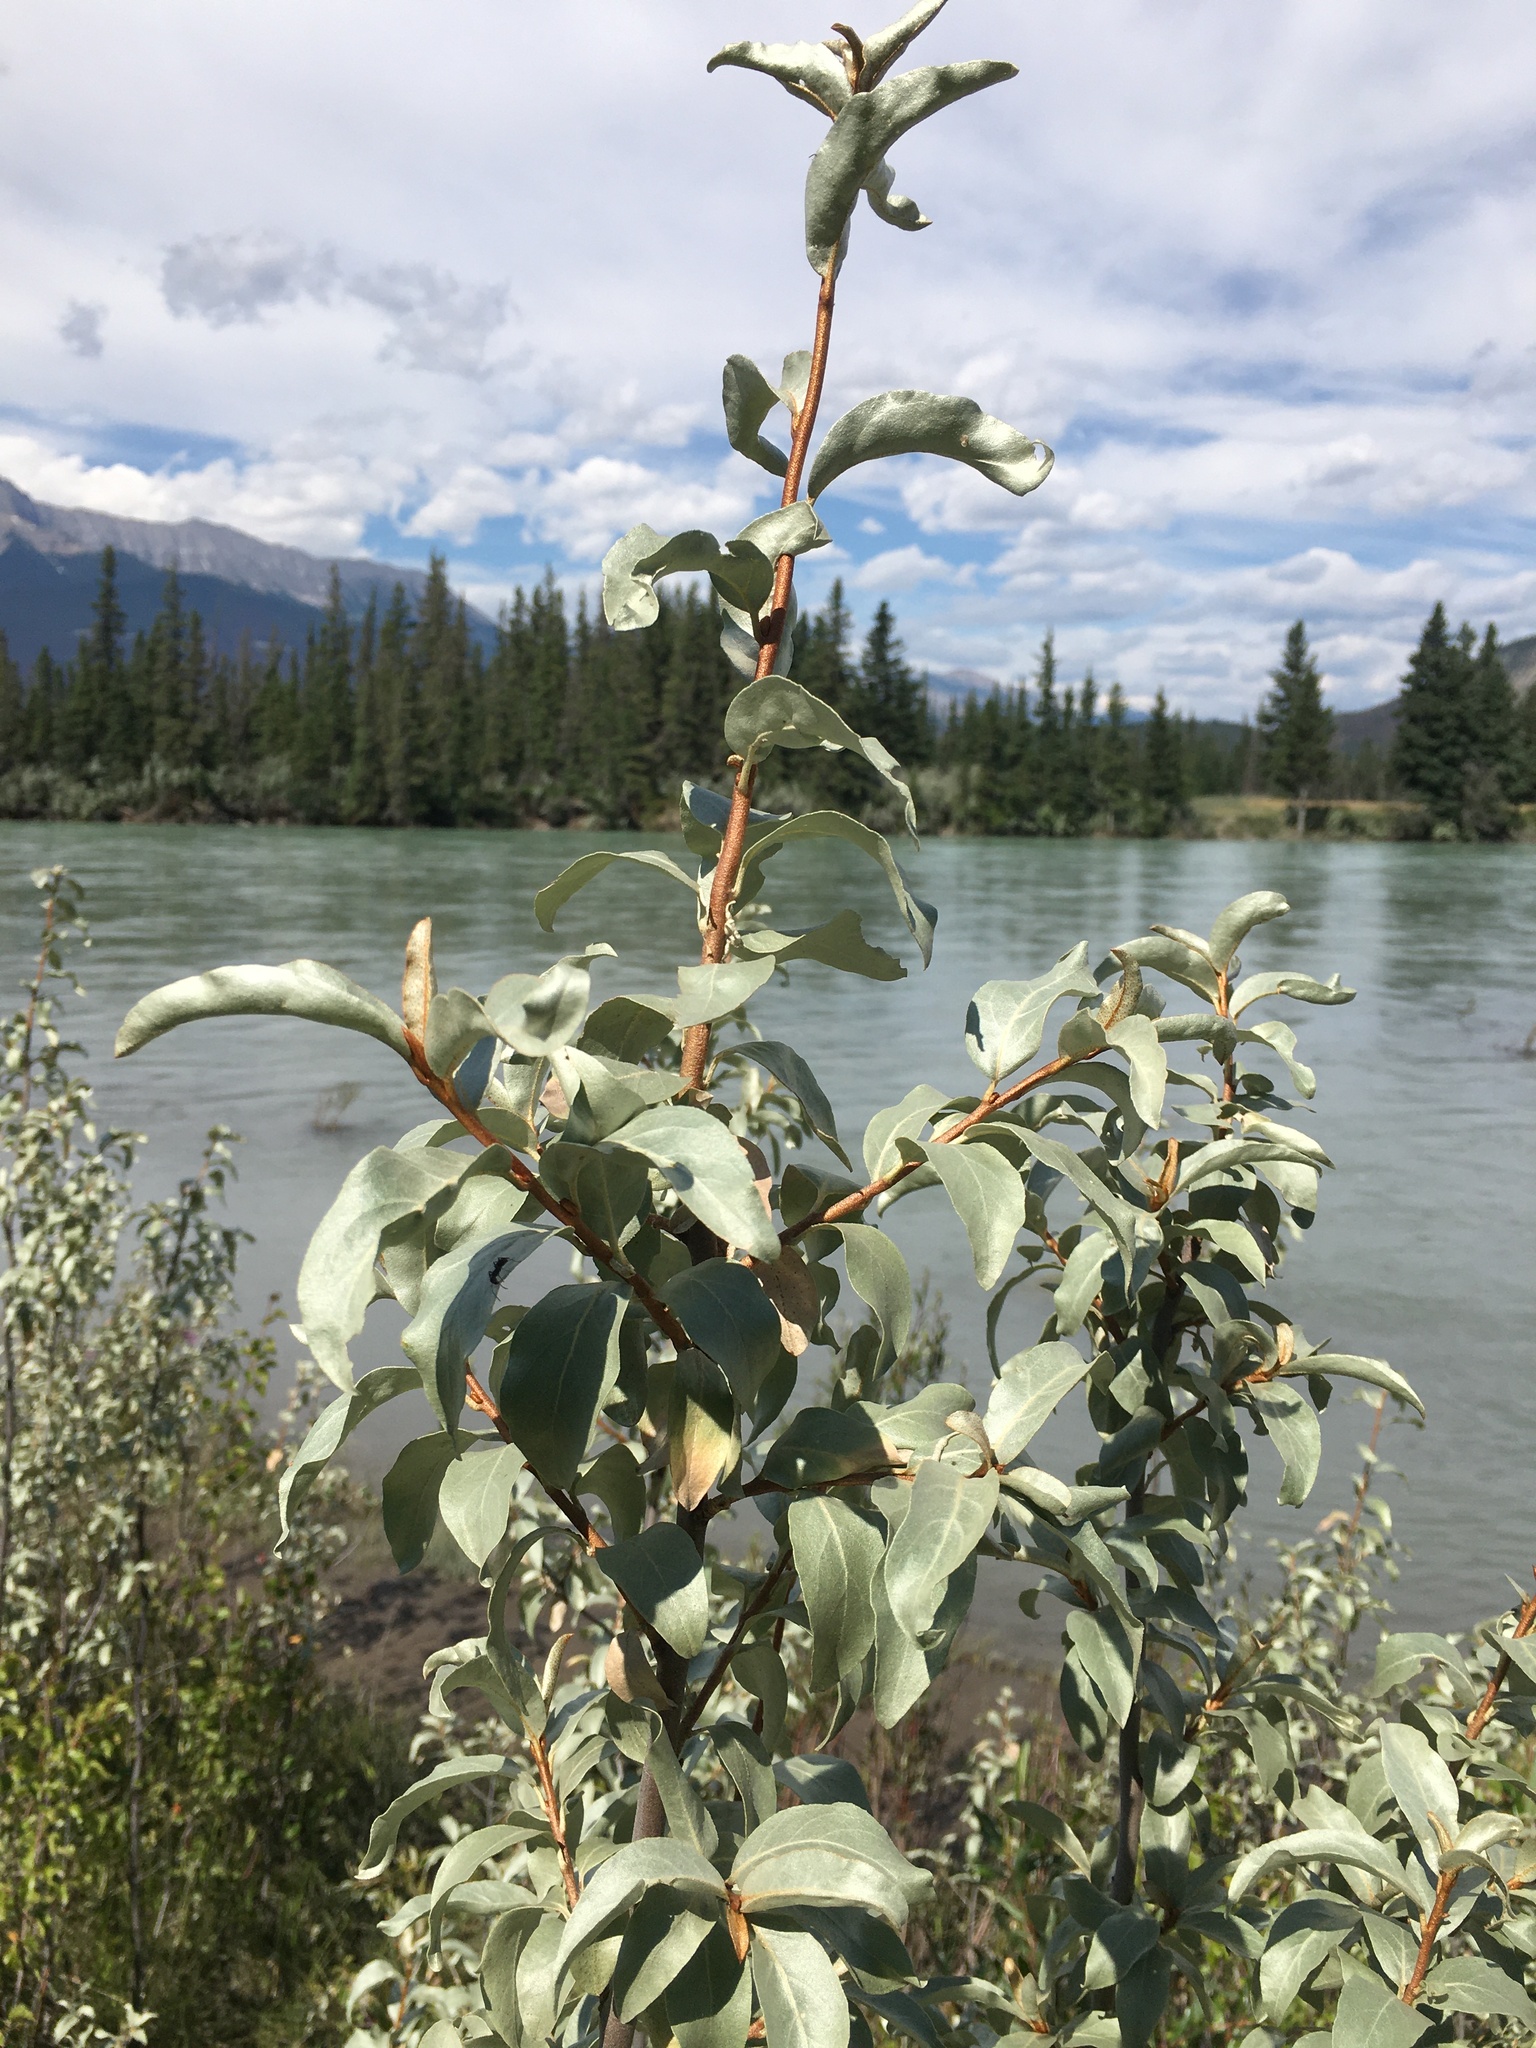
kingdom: Plantae
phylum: Tracheophyta
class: Magnoliopsida
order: Rosales
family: Elaeagnaceae
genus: Elaeagnus
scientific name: Elaeagnus commutata
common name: Silverberry
